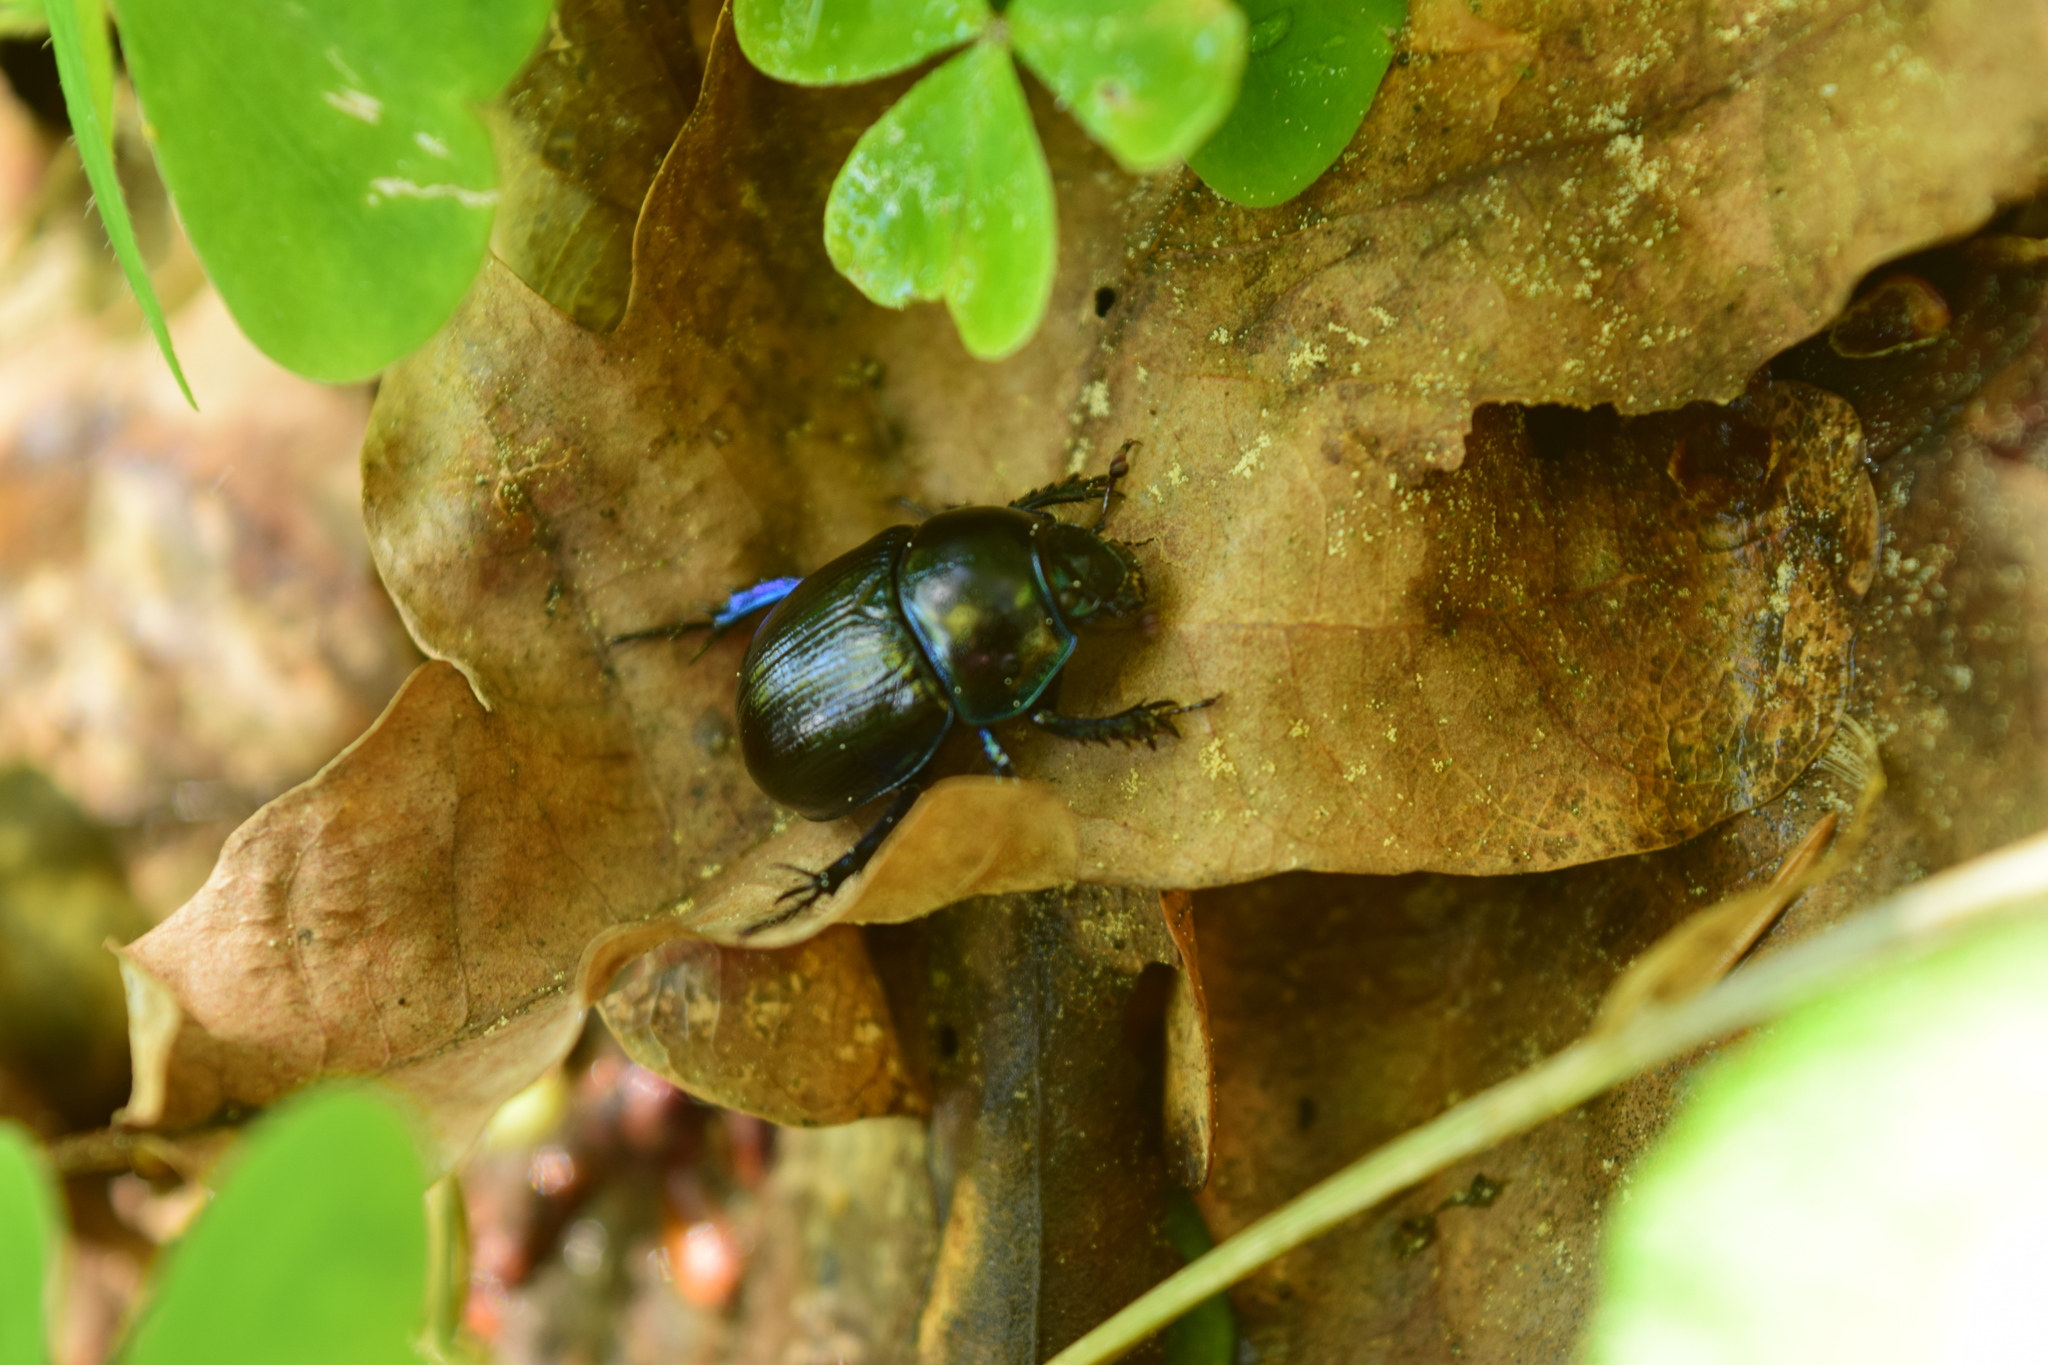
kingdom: Animalia
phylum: Arthropoda
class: Insecta
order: Coleoptera
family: Geotrupidae
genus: Anoplotrupes
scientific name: Anoplotrupes stercorosus
